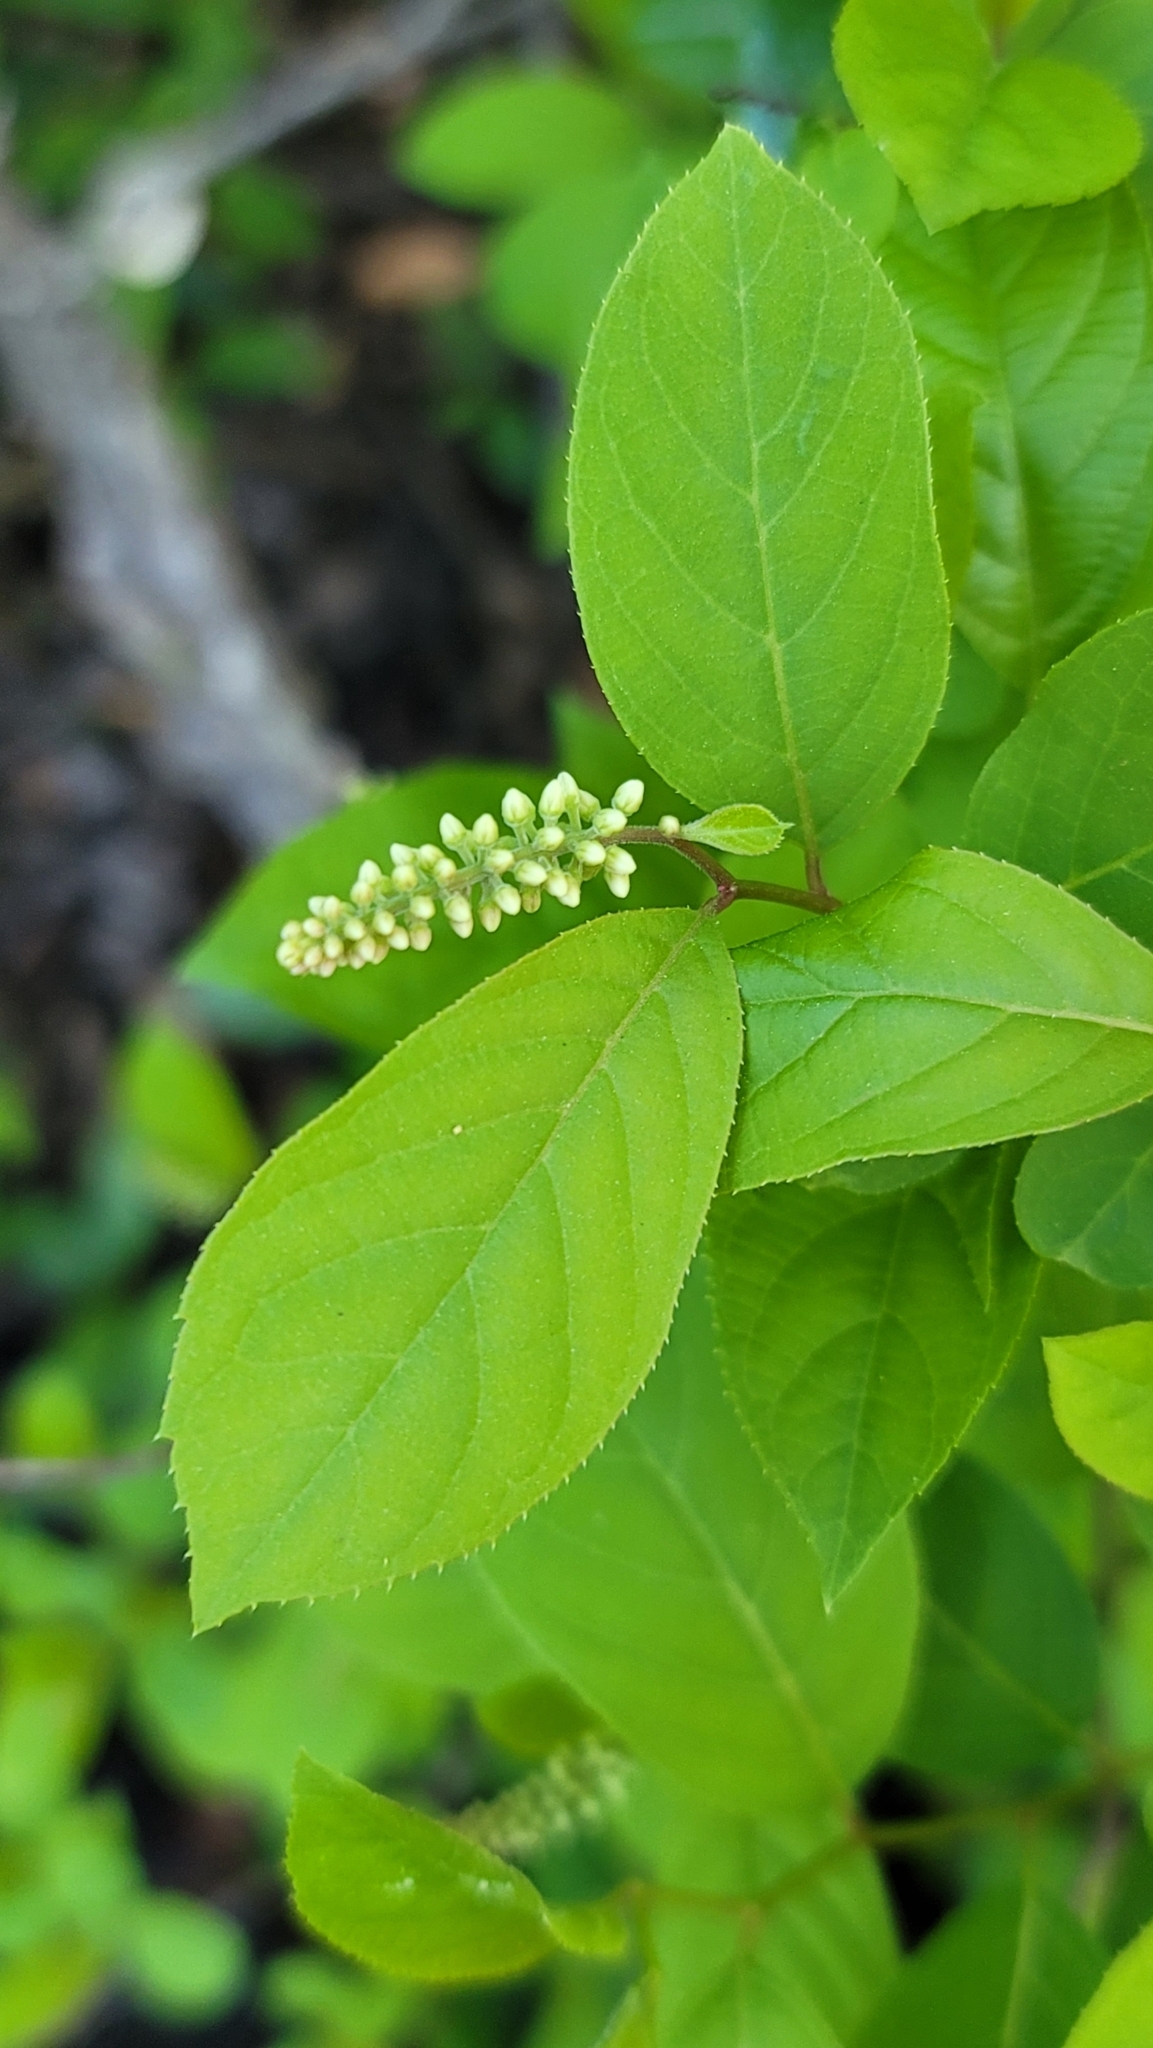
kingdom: Plantae
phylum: Tracheophyta
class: Magnoliopsida
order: Saxifragales
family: Iteaceae
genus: Itea
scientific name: Itea virginica
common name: Sweetspire
